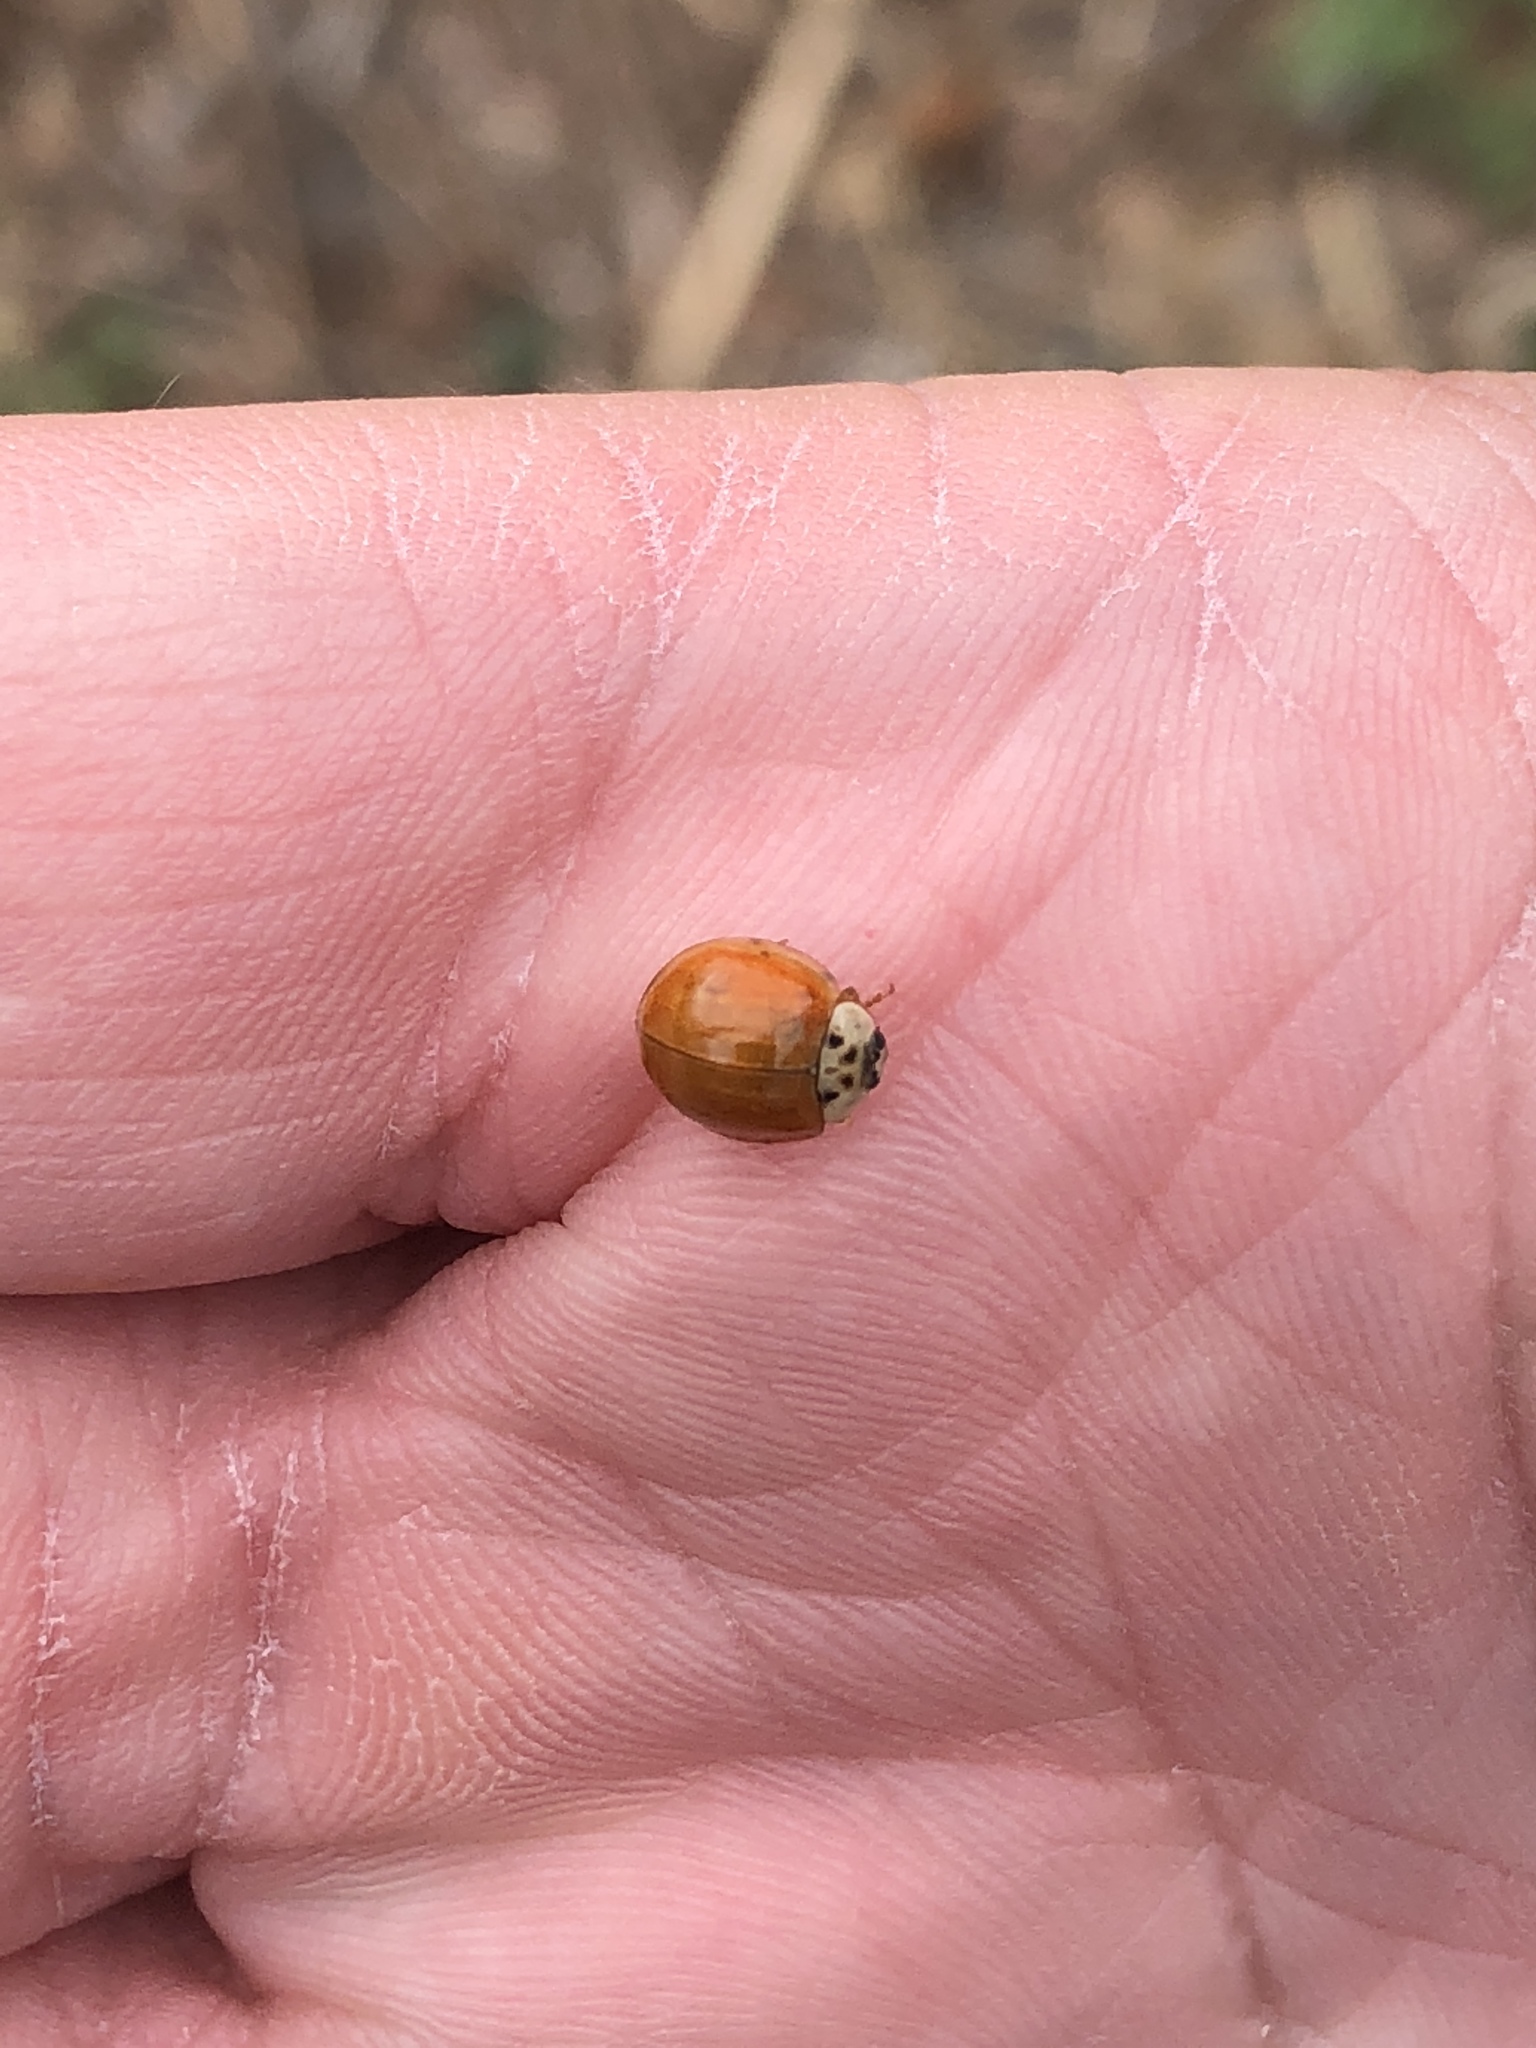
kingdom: Animalia
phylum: Arthropoda
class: Insecta
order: Coleoptera
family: Coccinellidae
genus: Harmonia
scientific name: Harmonia axyridis
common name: Harlequin ladybird
